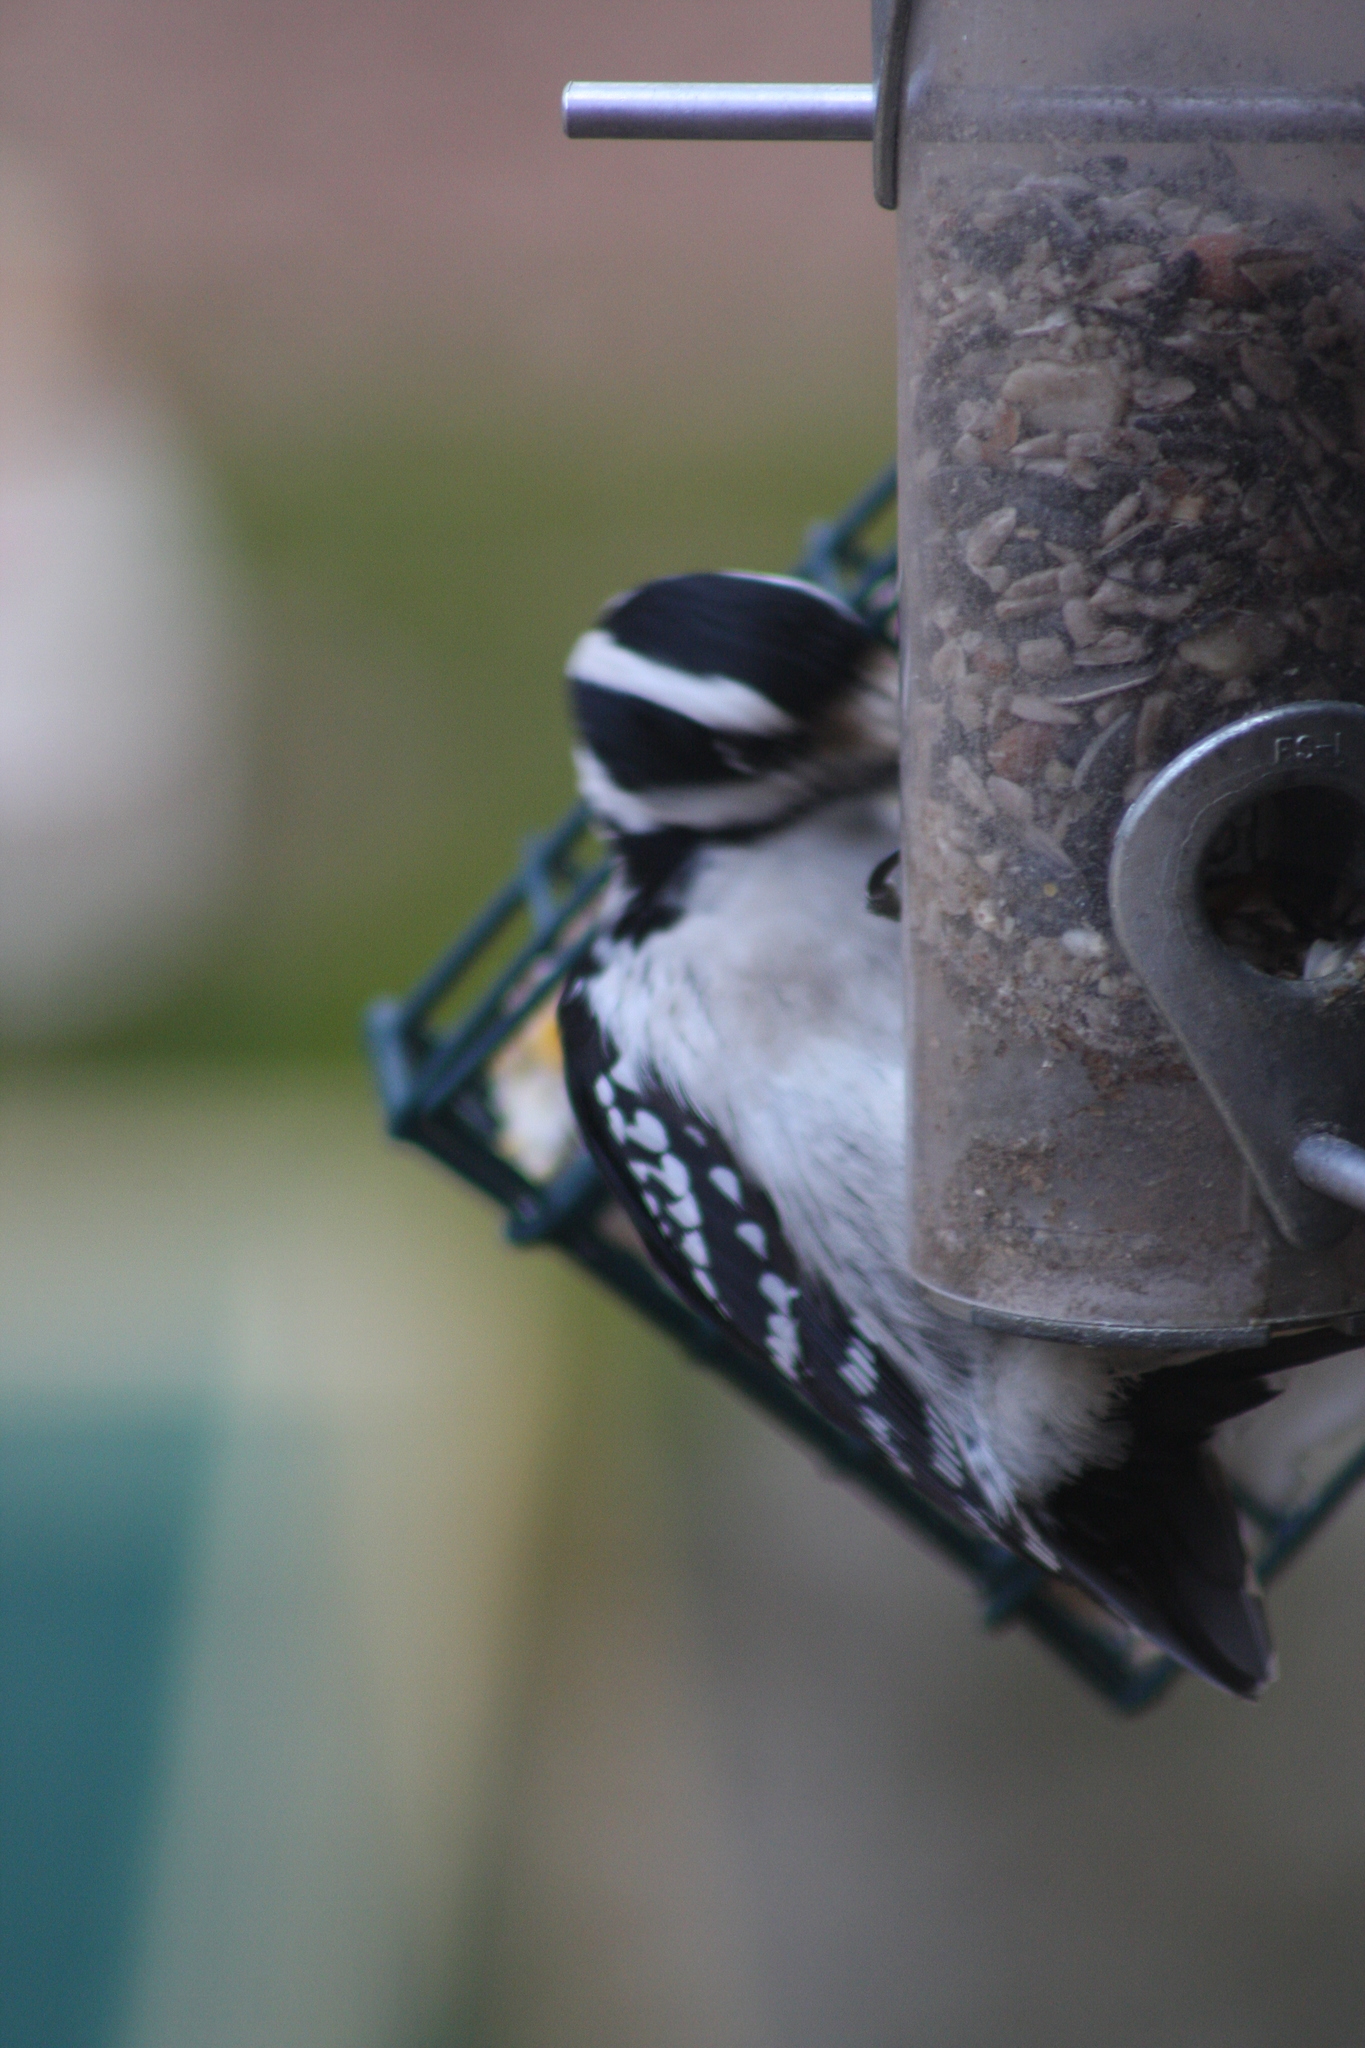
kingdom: Animalia
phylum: Chordata
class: Aves
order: Piciformes
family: Picidae
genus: Dryobates
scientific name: Dryobates pubescens
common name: Downy woodpecker
